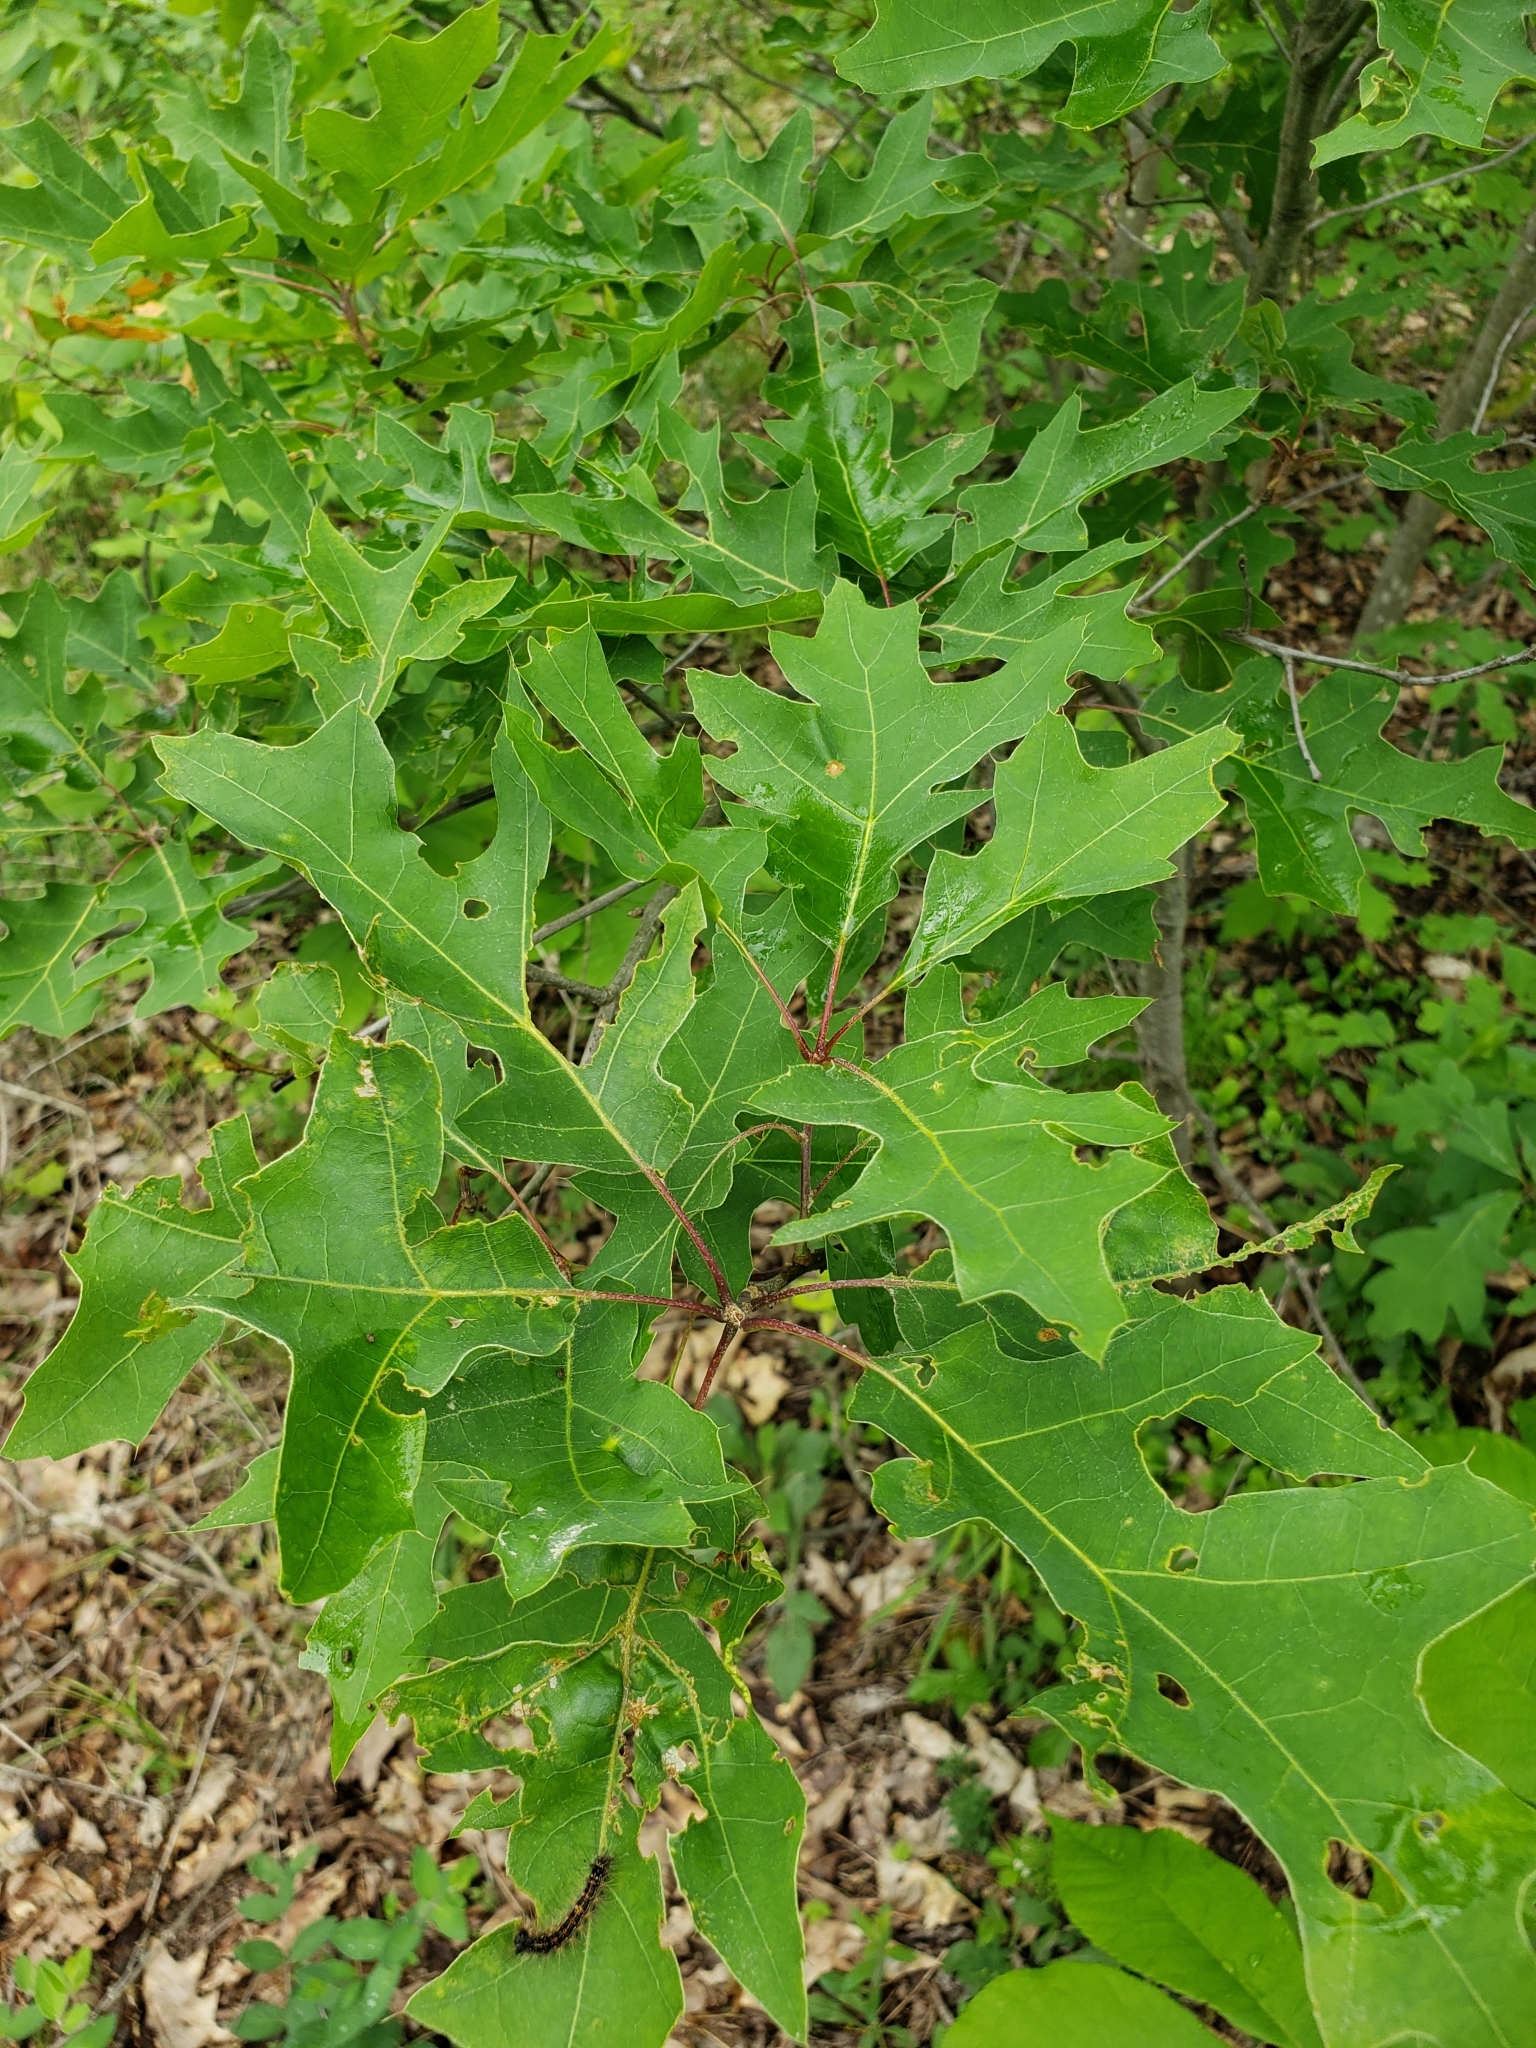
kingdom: Animalia
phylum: Arthropoda
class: Insecta
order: Hymenoptera
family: Cynipidae
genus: Amphibolips
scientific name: Amphibolips
